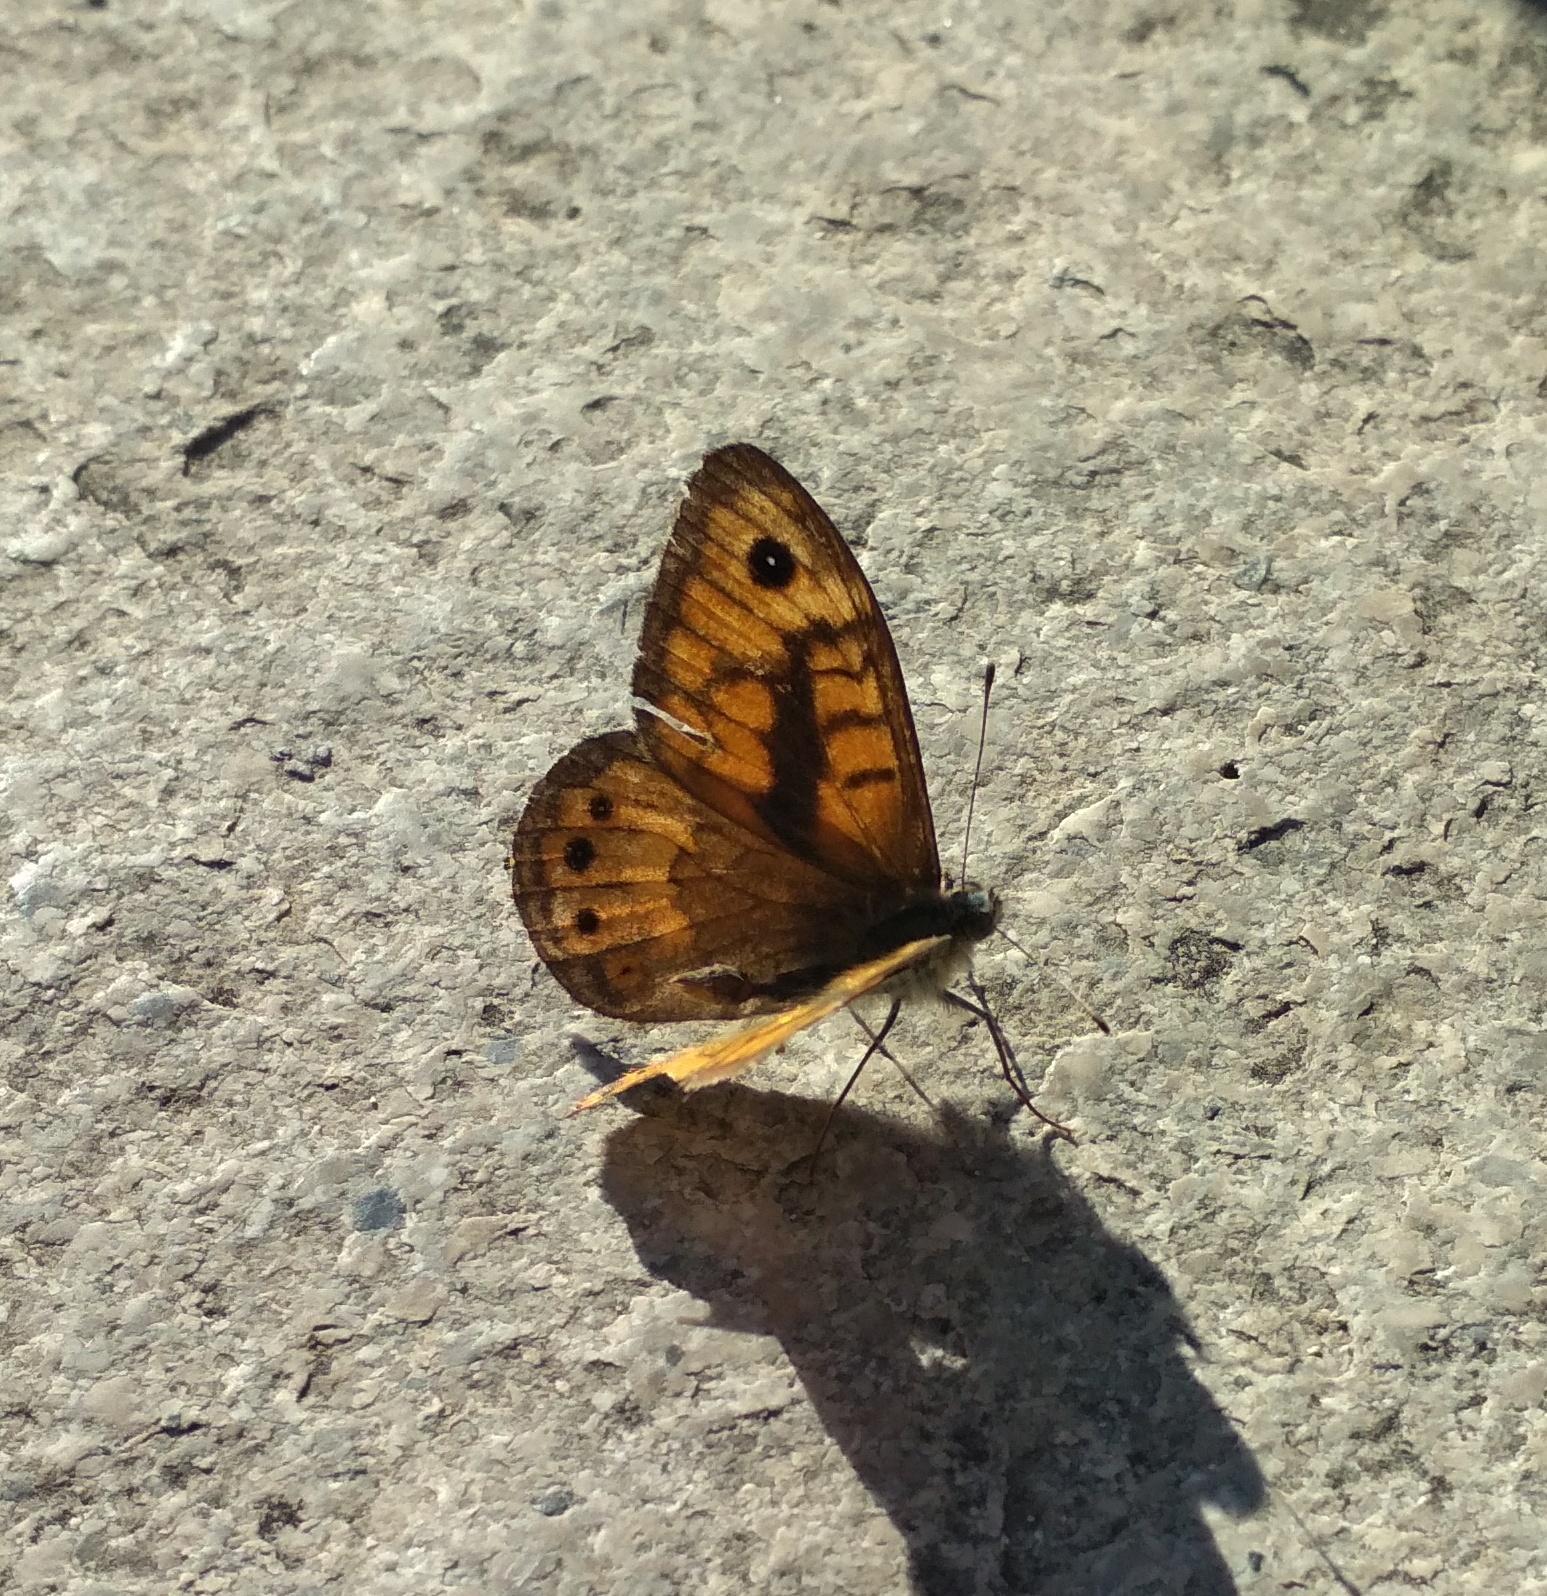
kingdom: Animalia
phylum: Arthropoda
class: Insecta
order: Lepidoptera
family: Nymphalidae
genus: Pararge
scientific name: Pararge Lasiommata megera
